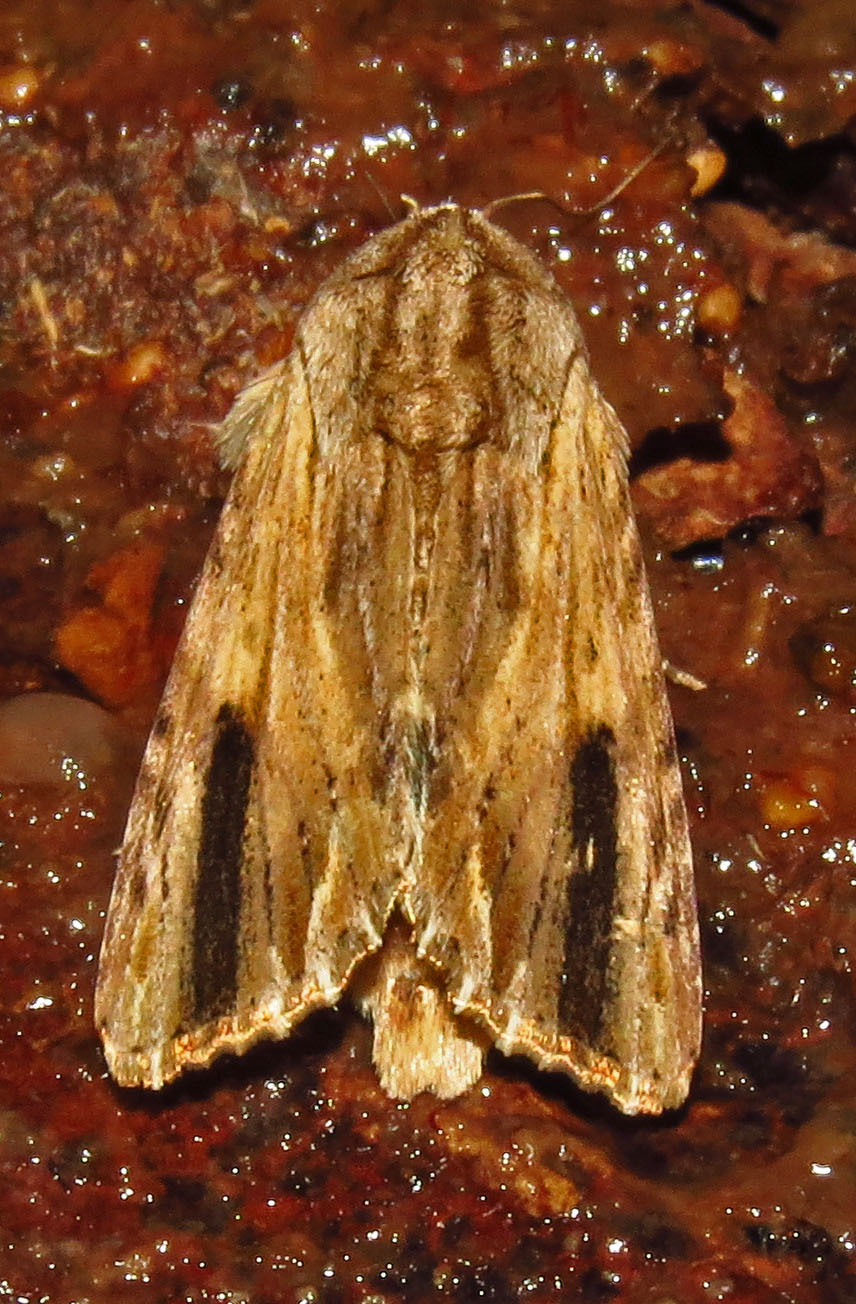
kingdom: Animalia
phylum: Arthropoda
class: Insecta
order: Lepidoptera
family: Noctuidae
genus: Spodoptera
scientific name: Spodoptera eridania
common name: Southern army worm
